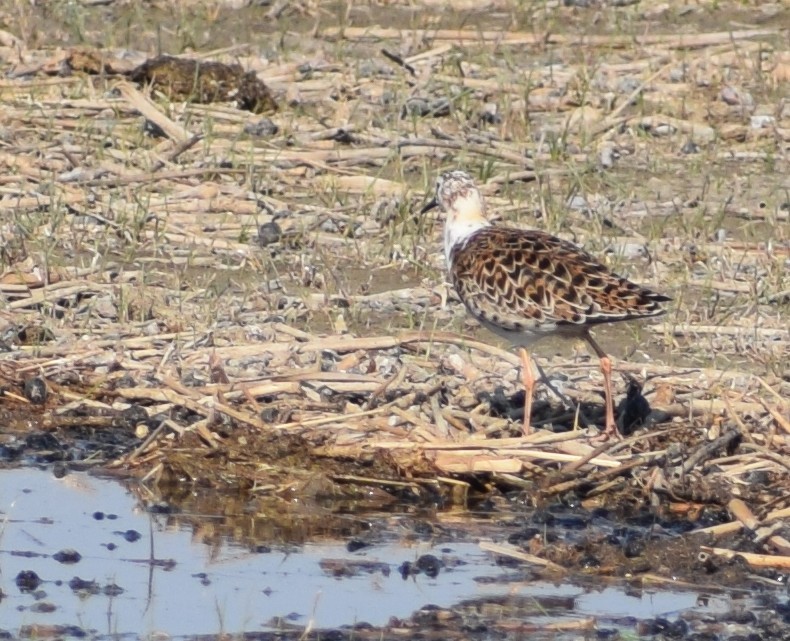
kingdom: Animalia
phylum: Chordata
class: Aves
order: Charadriiformes
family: Scolopacidae
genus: Calidris
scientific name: Calidris pugnax
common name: Ruff
